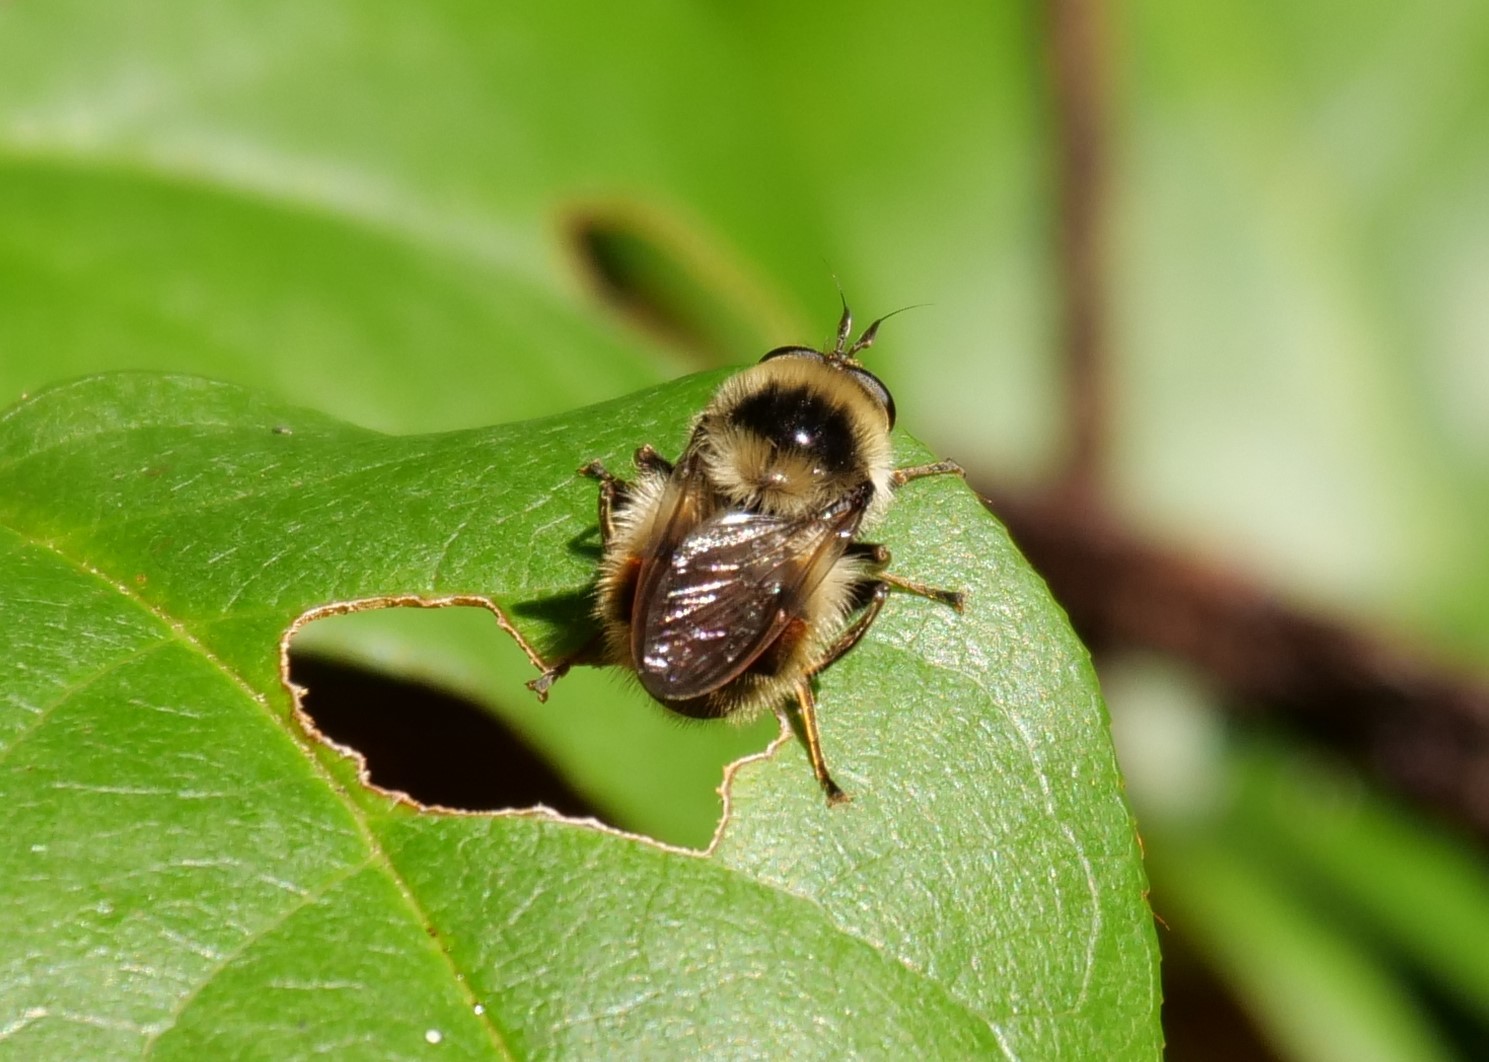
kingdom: Animalia
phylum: Arthropoda
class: Insecta
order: Diptera
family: Syrphidae
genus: Criorhina
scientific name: Criorhina tricolor
